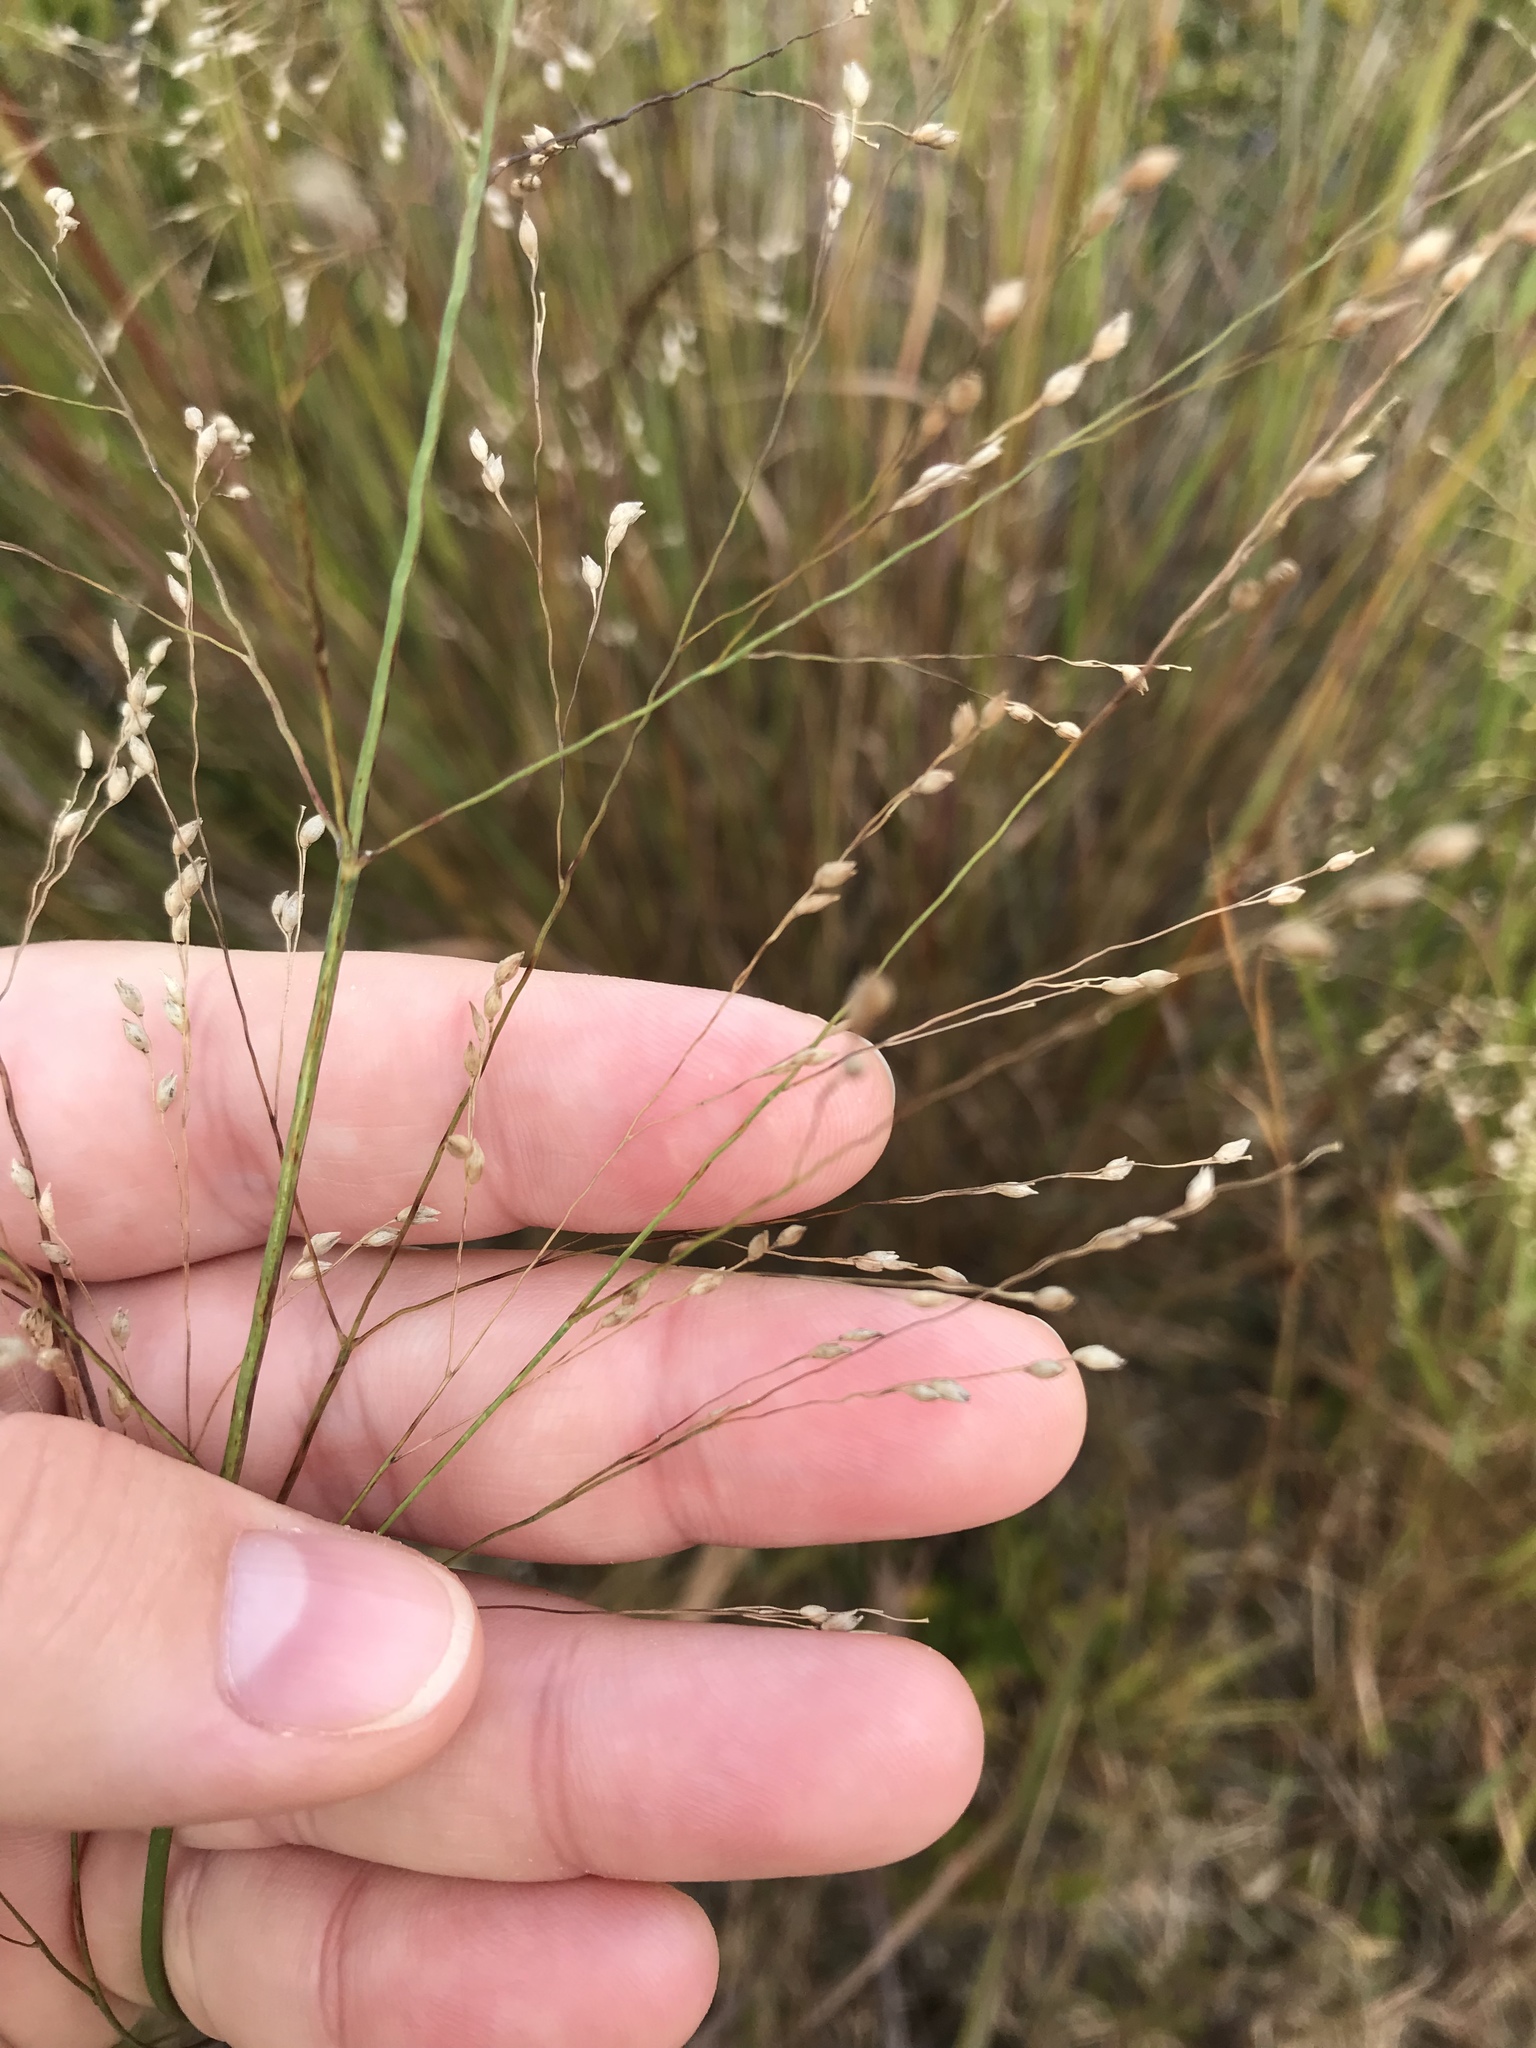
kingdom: Plantae
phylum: Tracheophyta
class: Liliopsida
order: Poales
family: Poaceae
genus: Panicum
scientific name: Panicum virgatum
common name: Switchgrass
